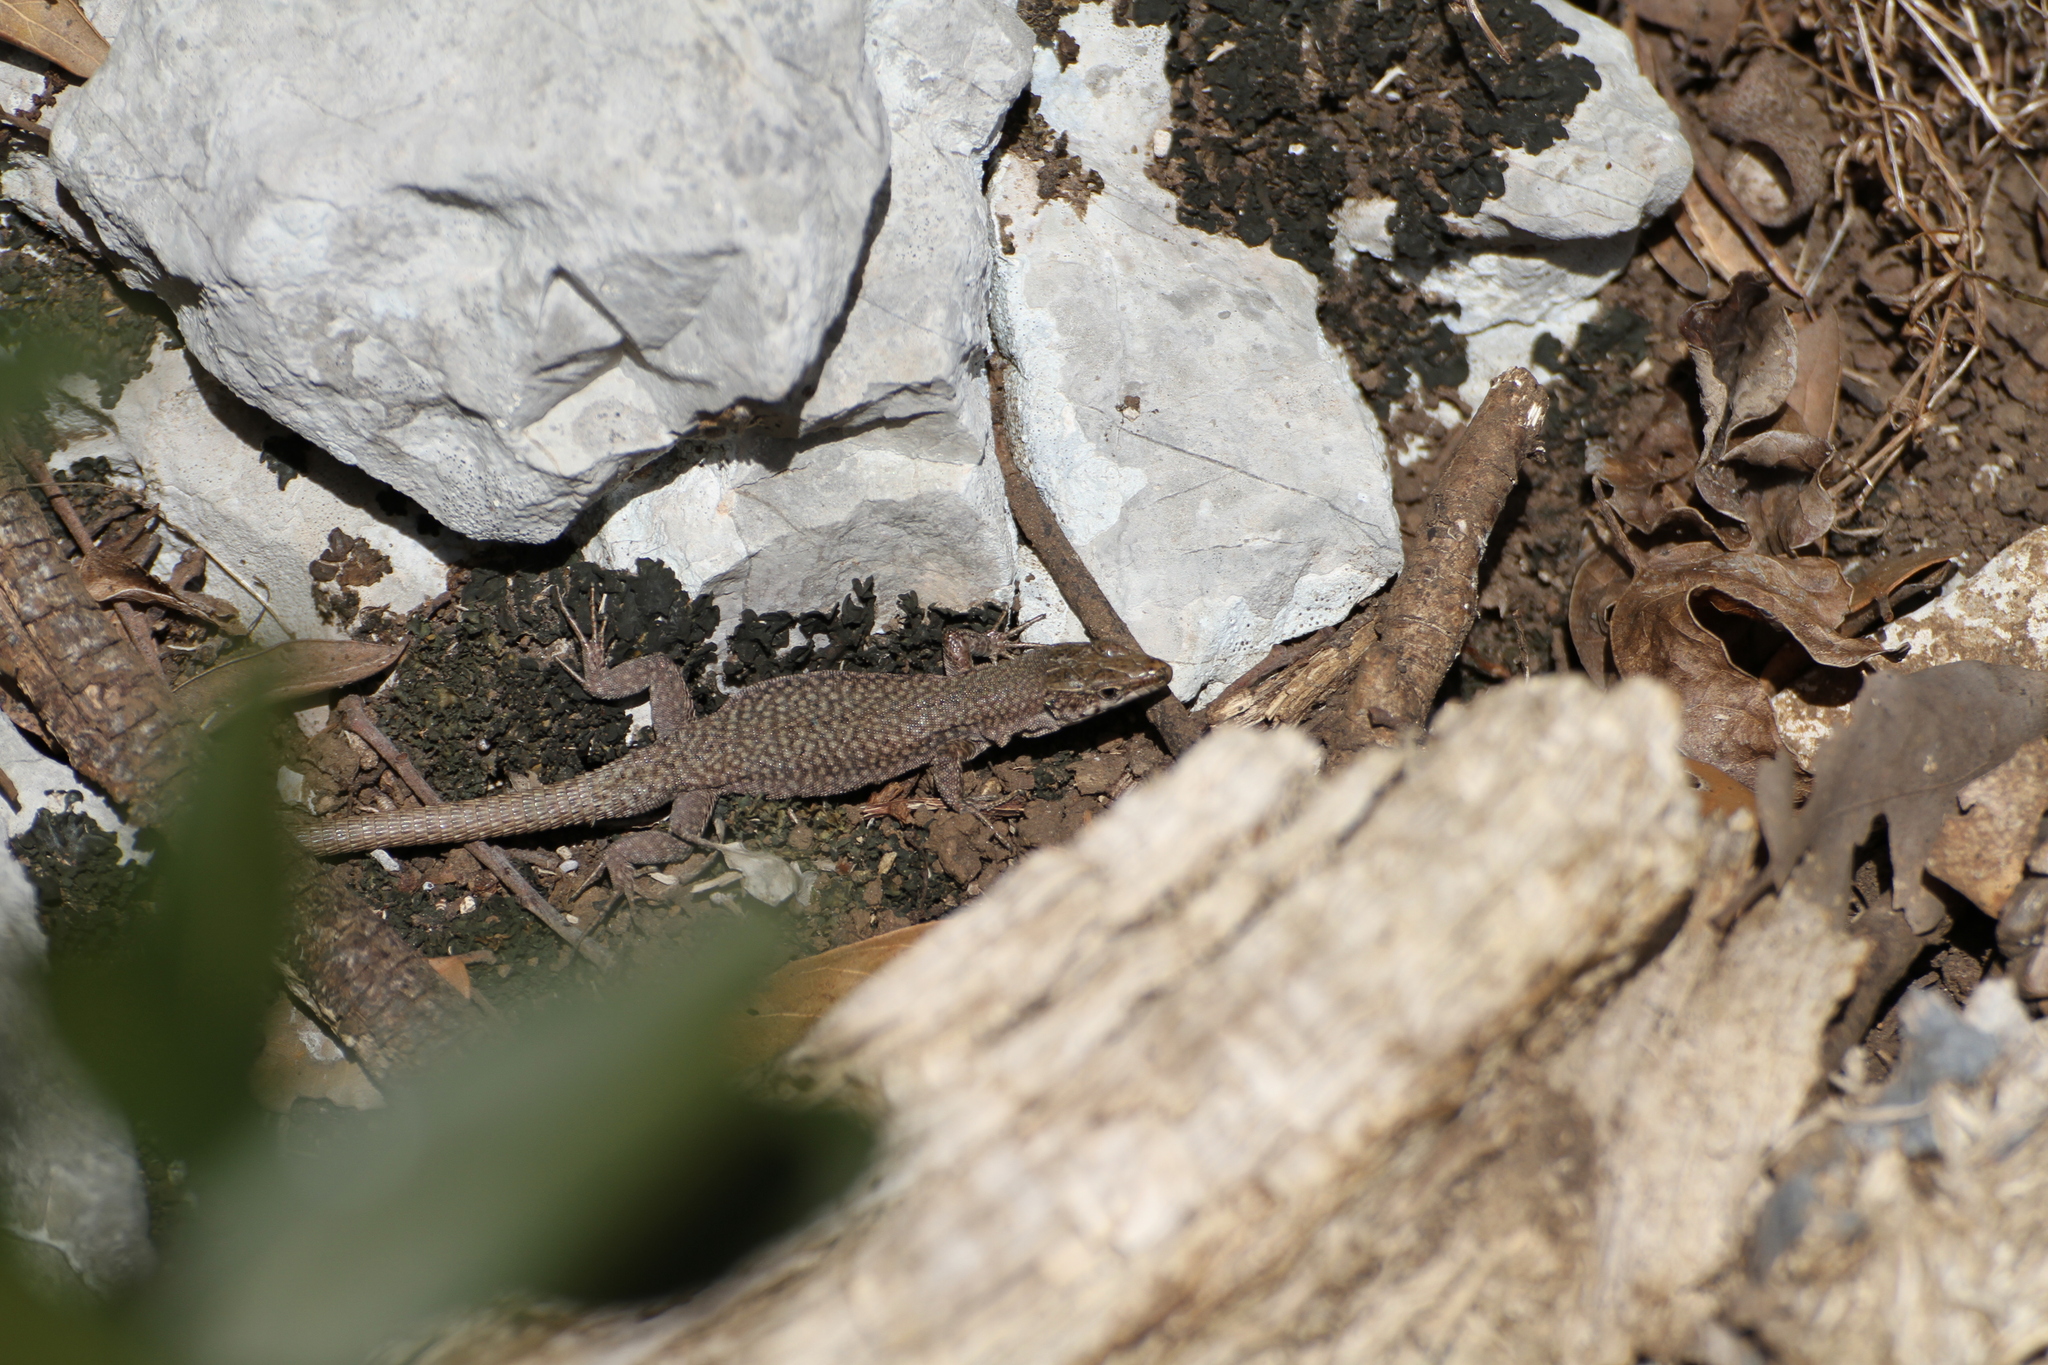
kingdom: Animalia
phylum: Chordata
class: Squamata
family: Lacertidae
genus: Podarcis
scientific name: Podarcis liolepis
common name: Catalonian wall lizard
